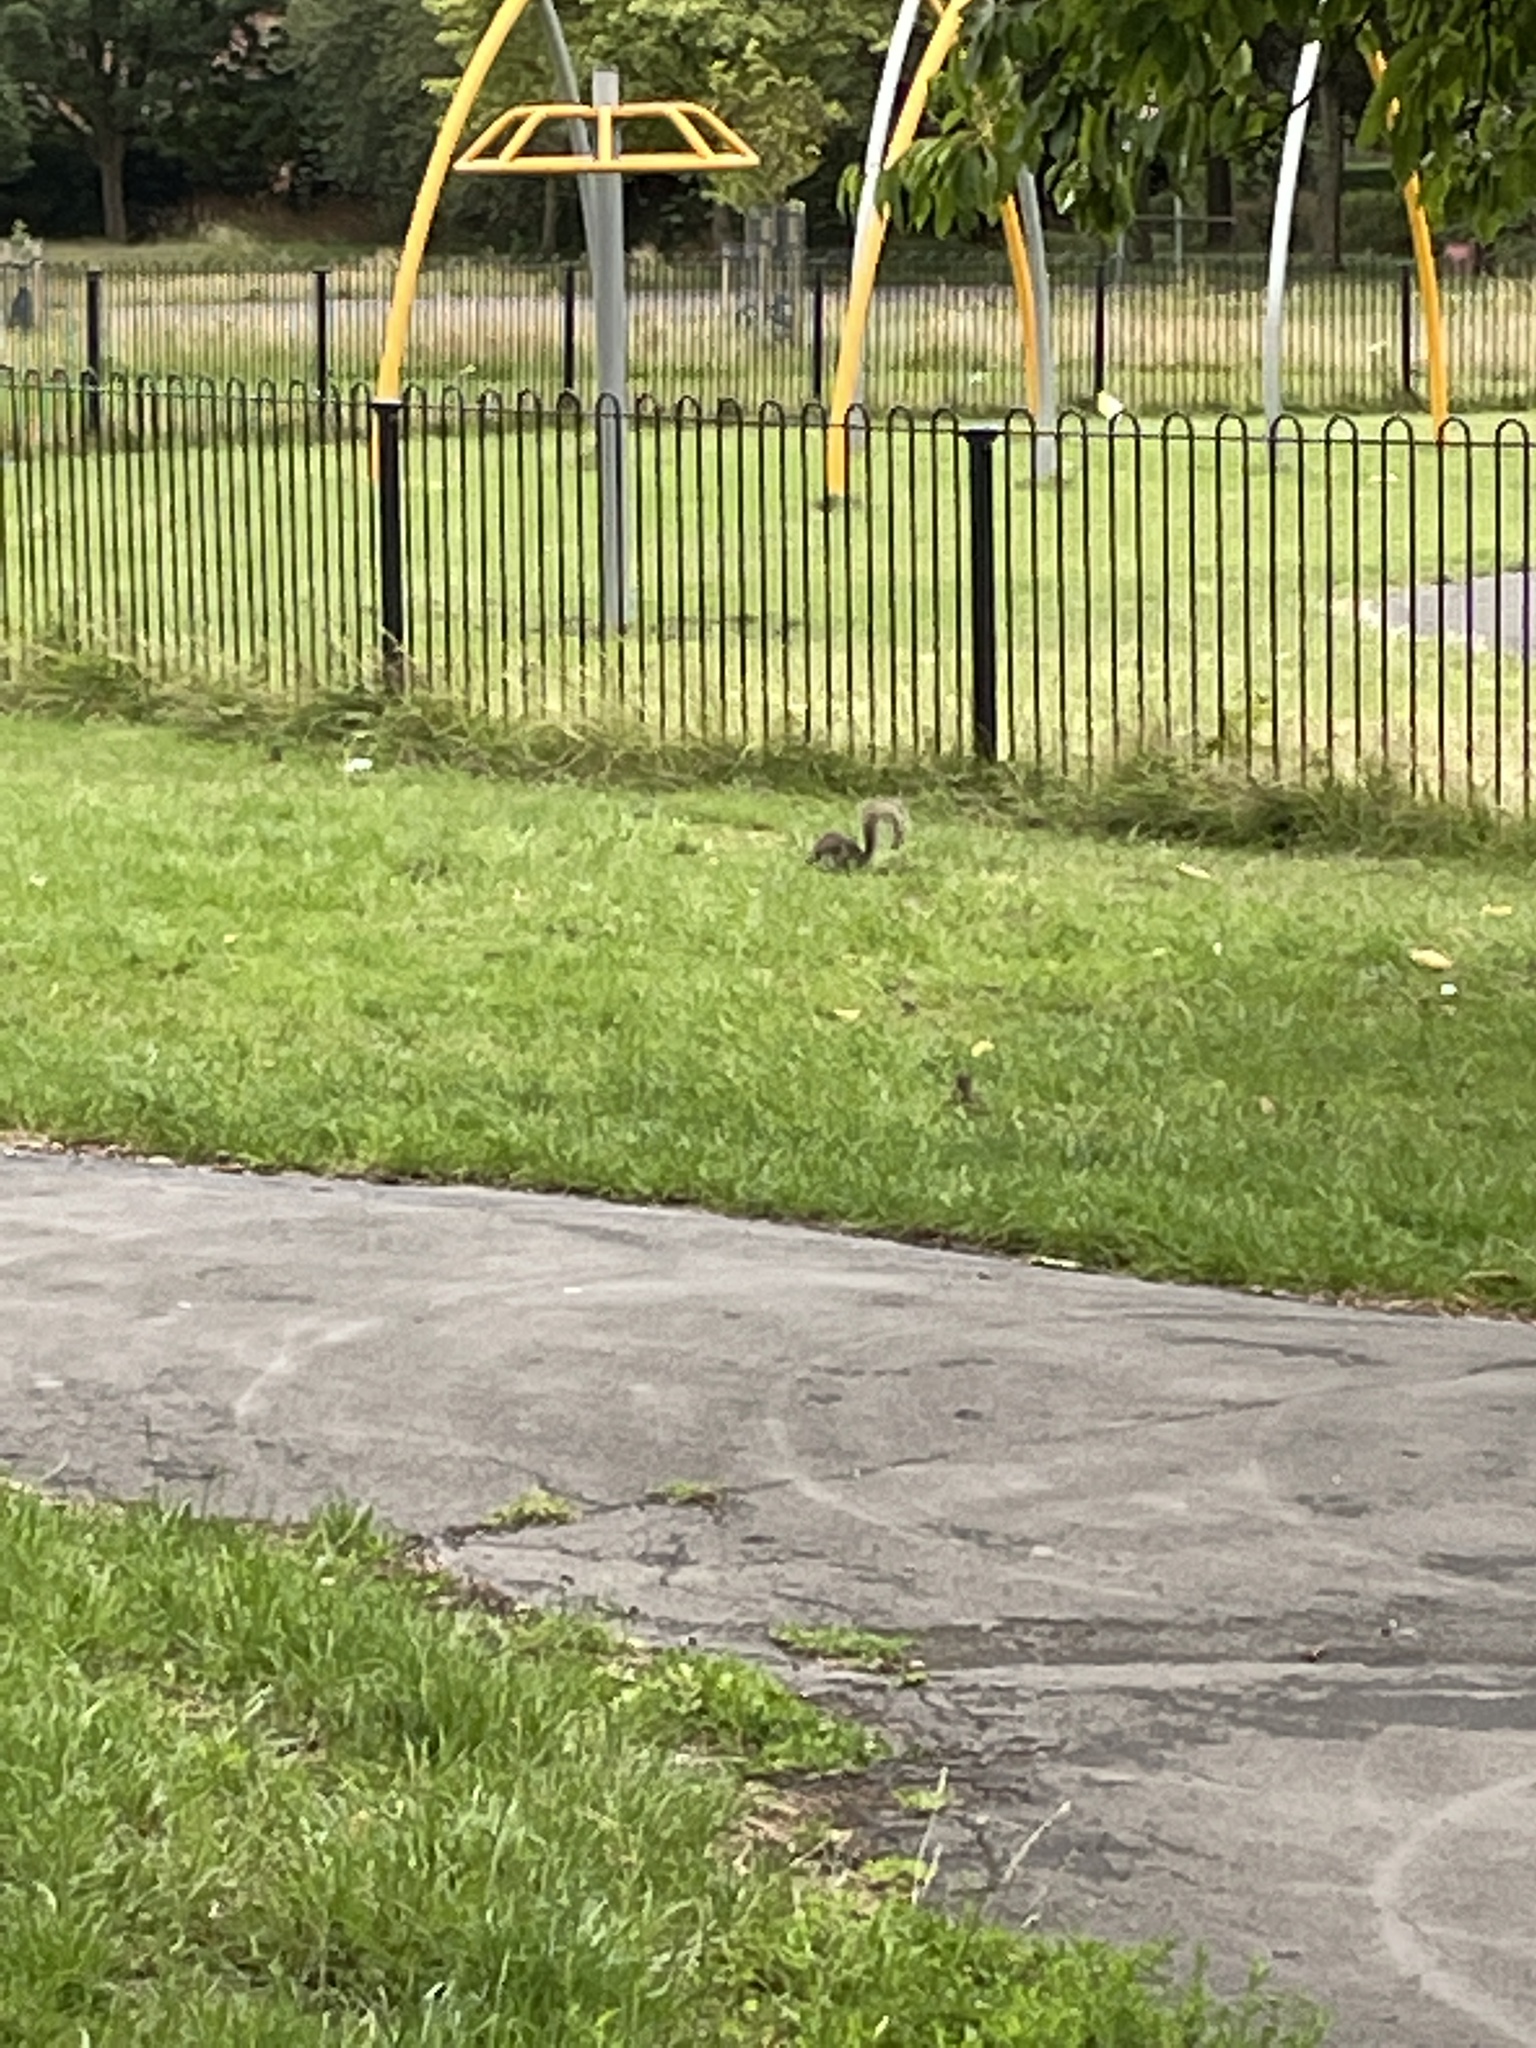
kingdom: Animalia
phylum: Chordata
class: Mammalia
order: Rodentia
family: Sciuridae
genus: Sciurus
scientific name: Sciurus carolinensis
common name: Eastern gray squirrel
